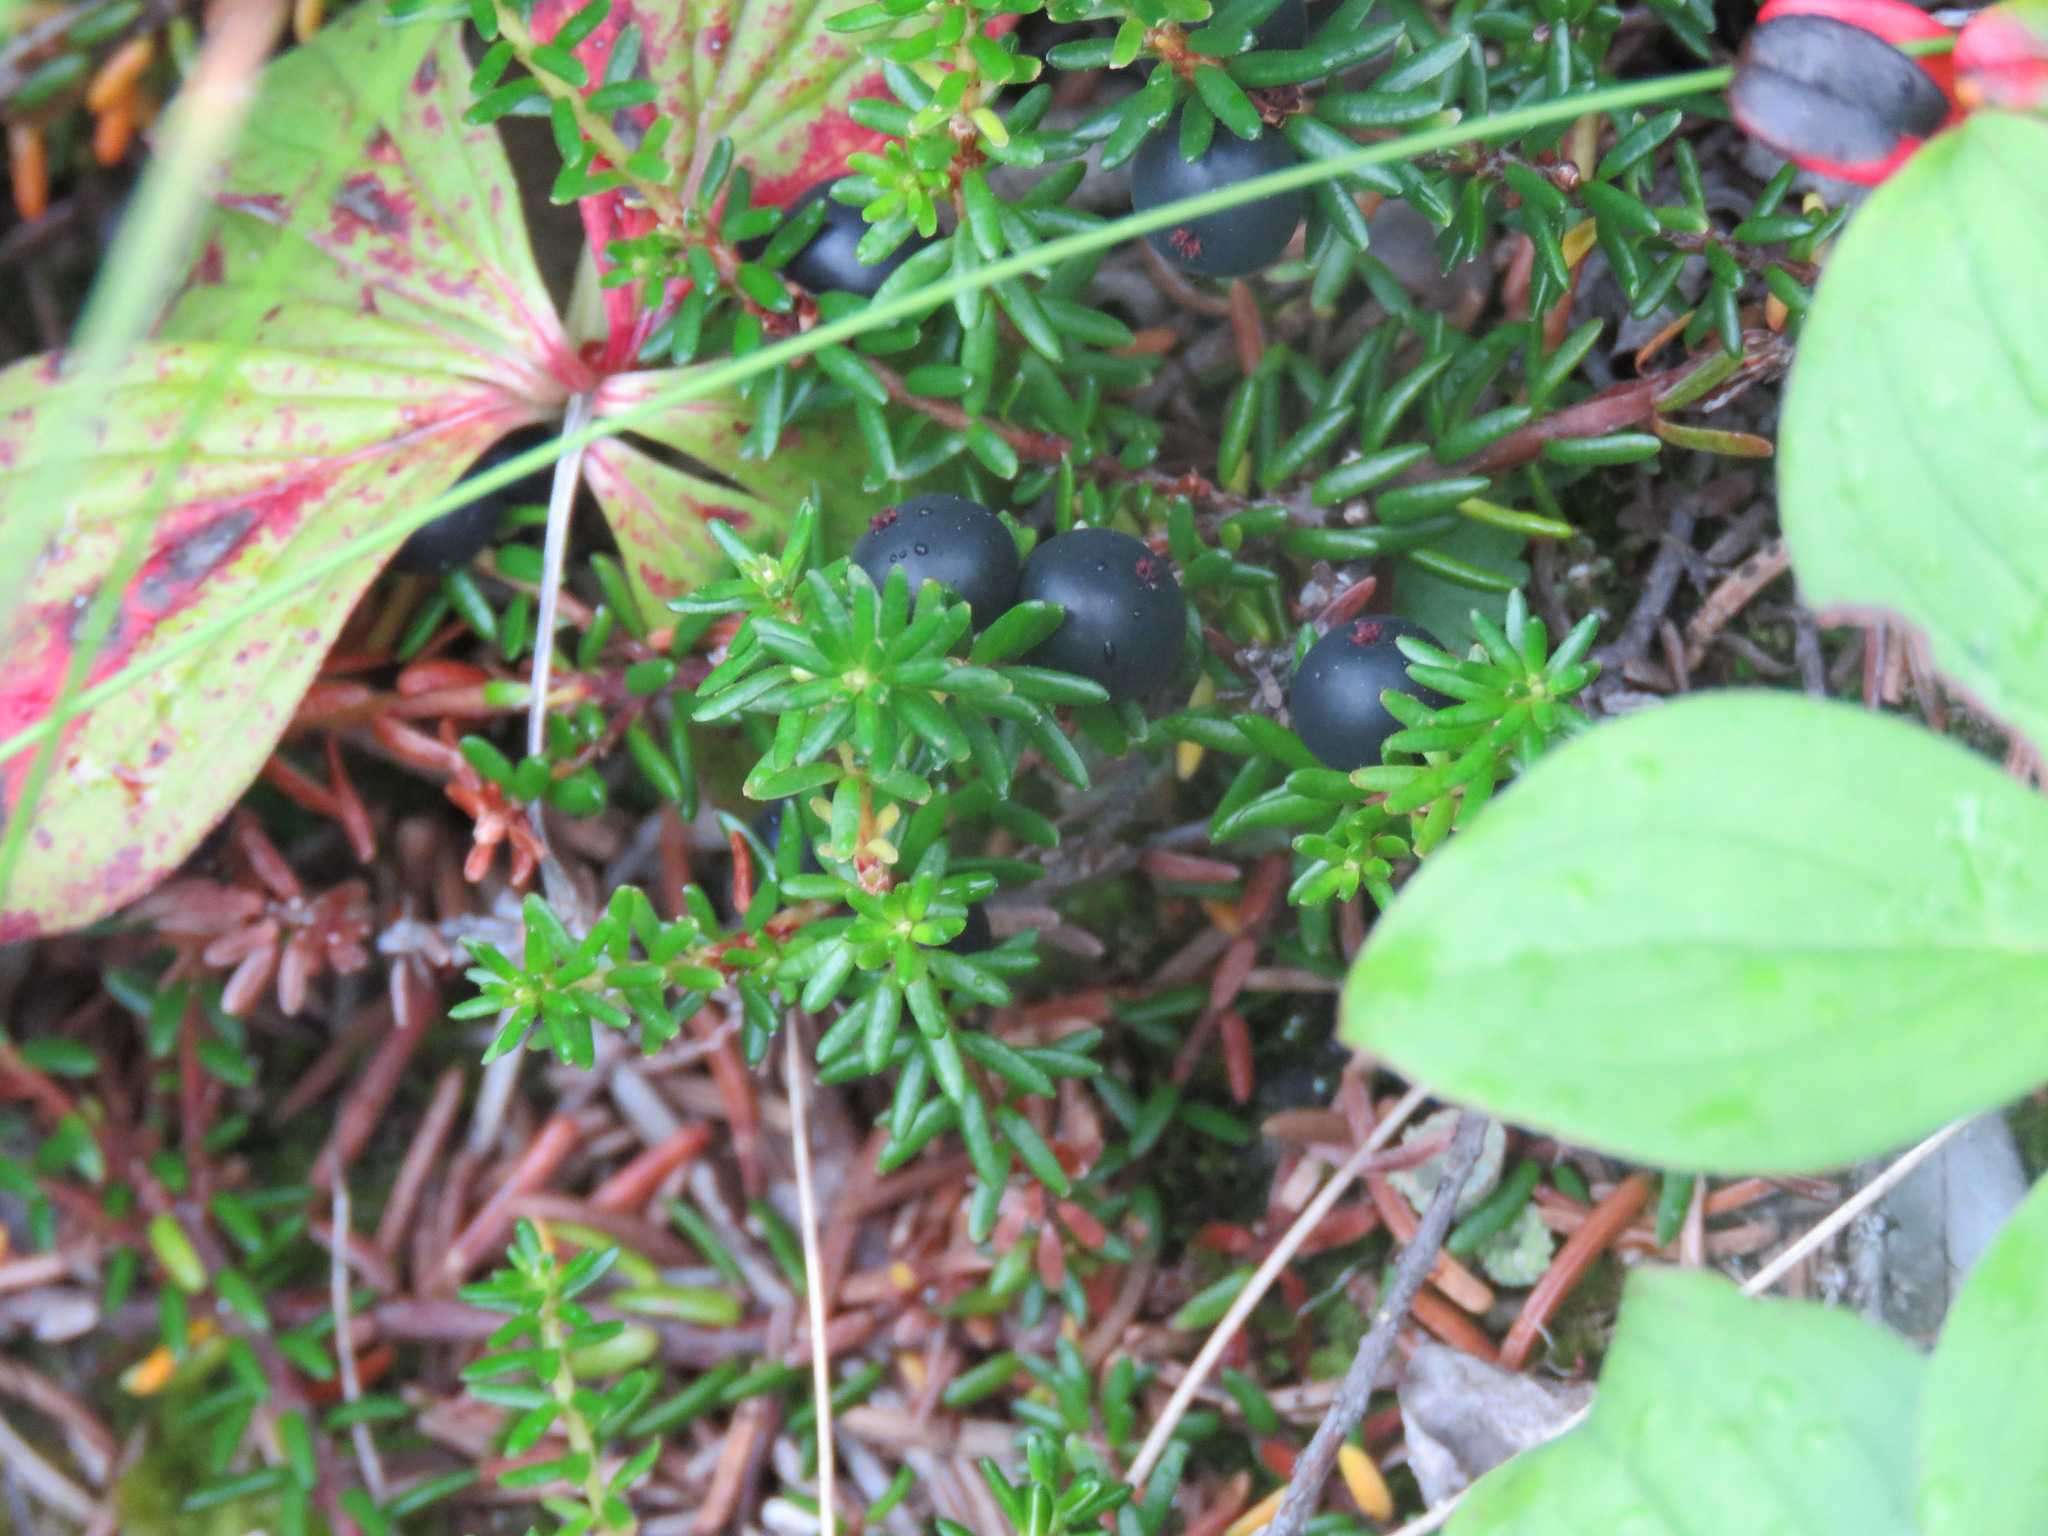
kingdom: Plantae
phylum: Tracheophyta
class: Magnoliopsida
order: Ericales
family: Ericaceae
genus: Empetrum
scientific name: Empetrum nigrum
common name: Black crowberry
